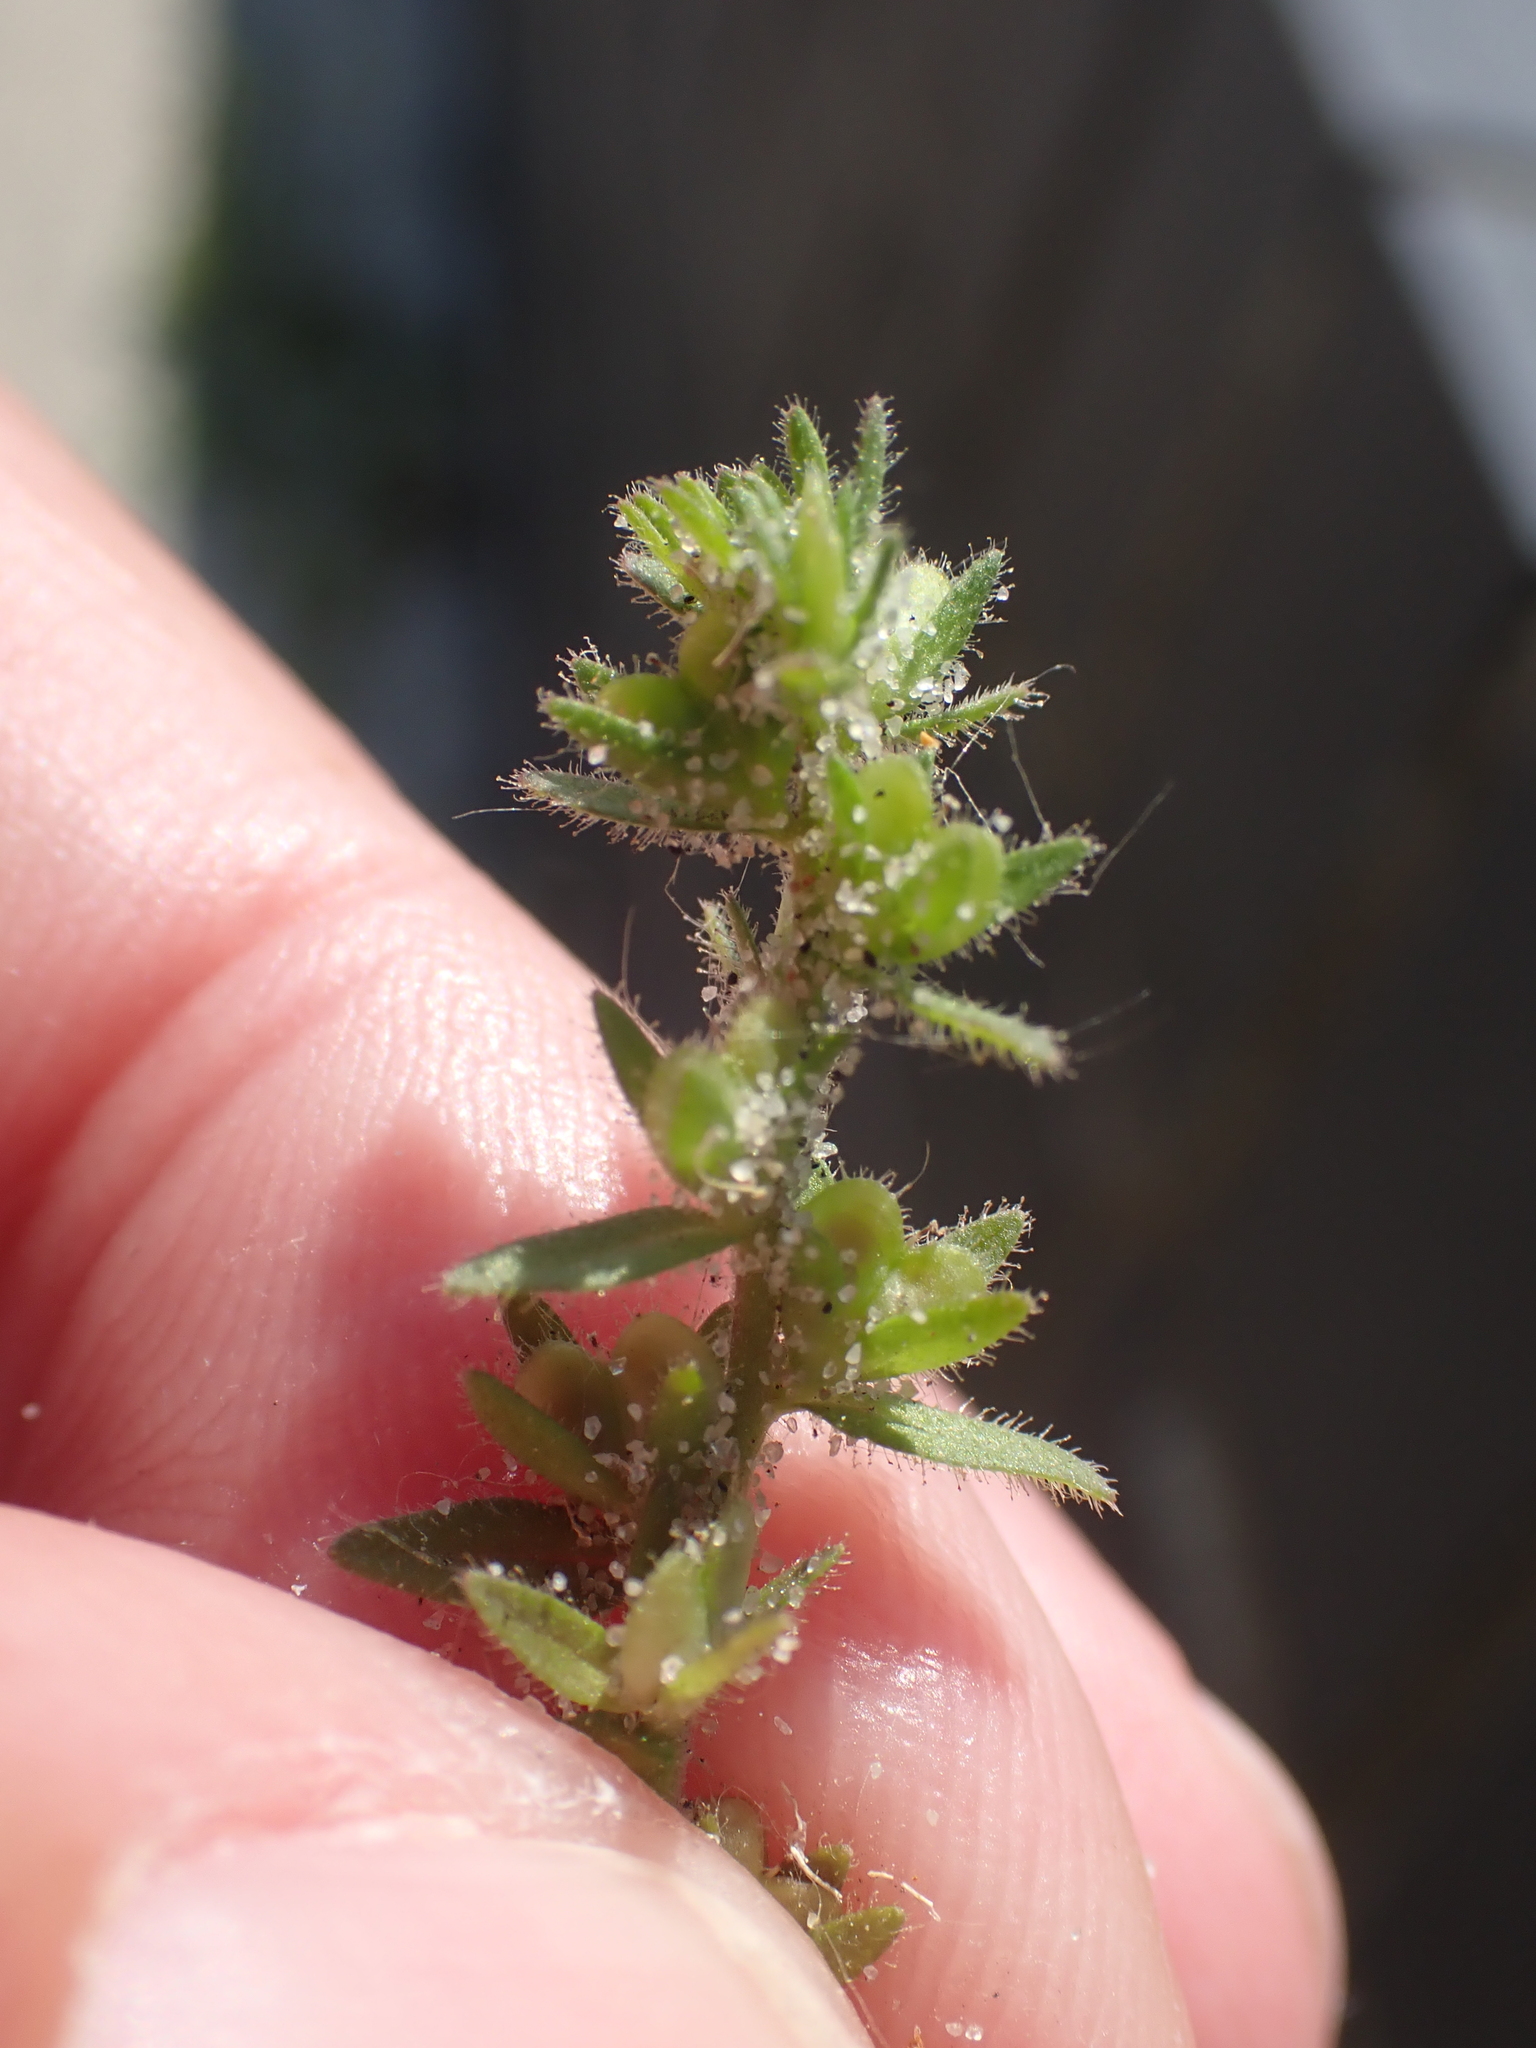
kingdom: Plantae
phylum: Tracheophyta
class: Magnoliopsida
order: Lamiales
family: Plantaginaceae
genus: Veronica
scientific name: Veronica arvensis
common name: Corn speedwell
